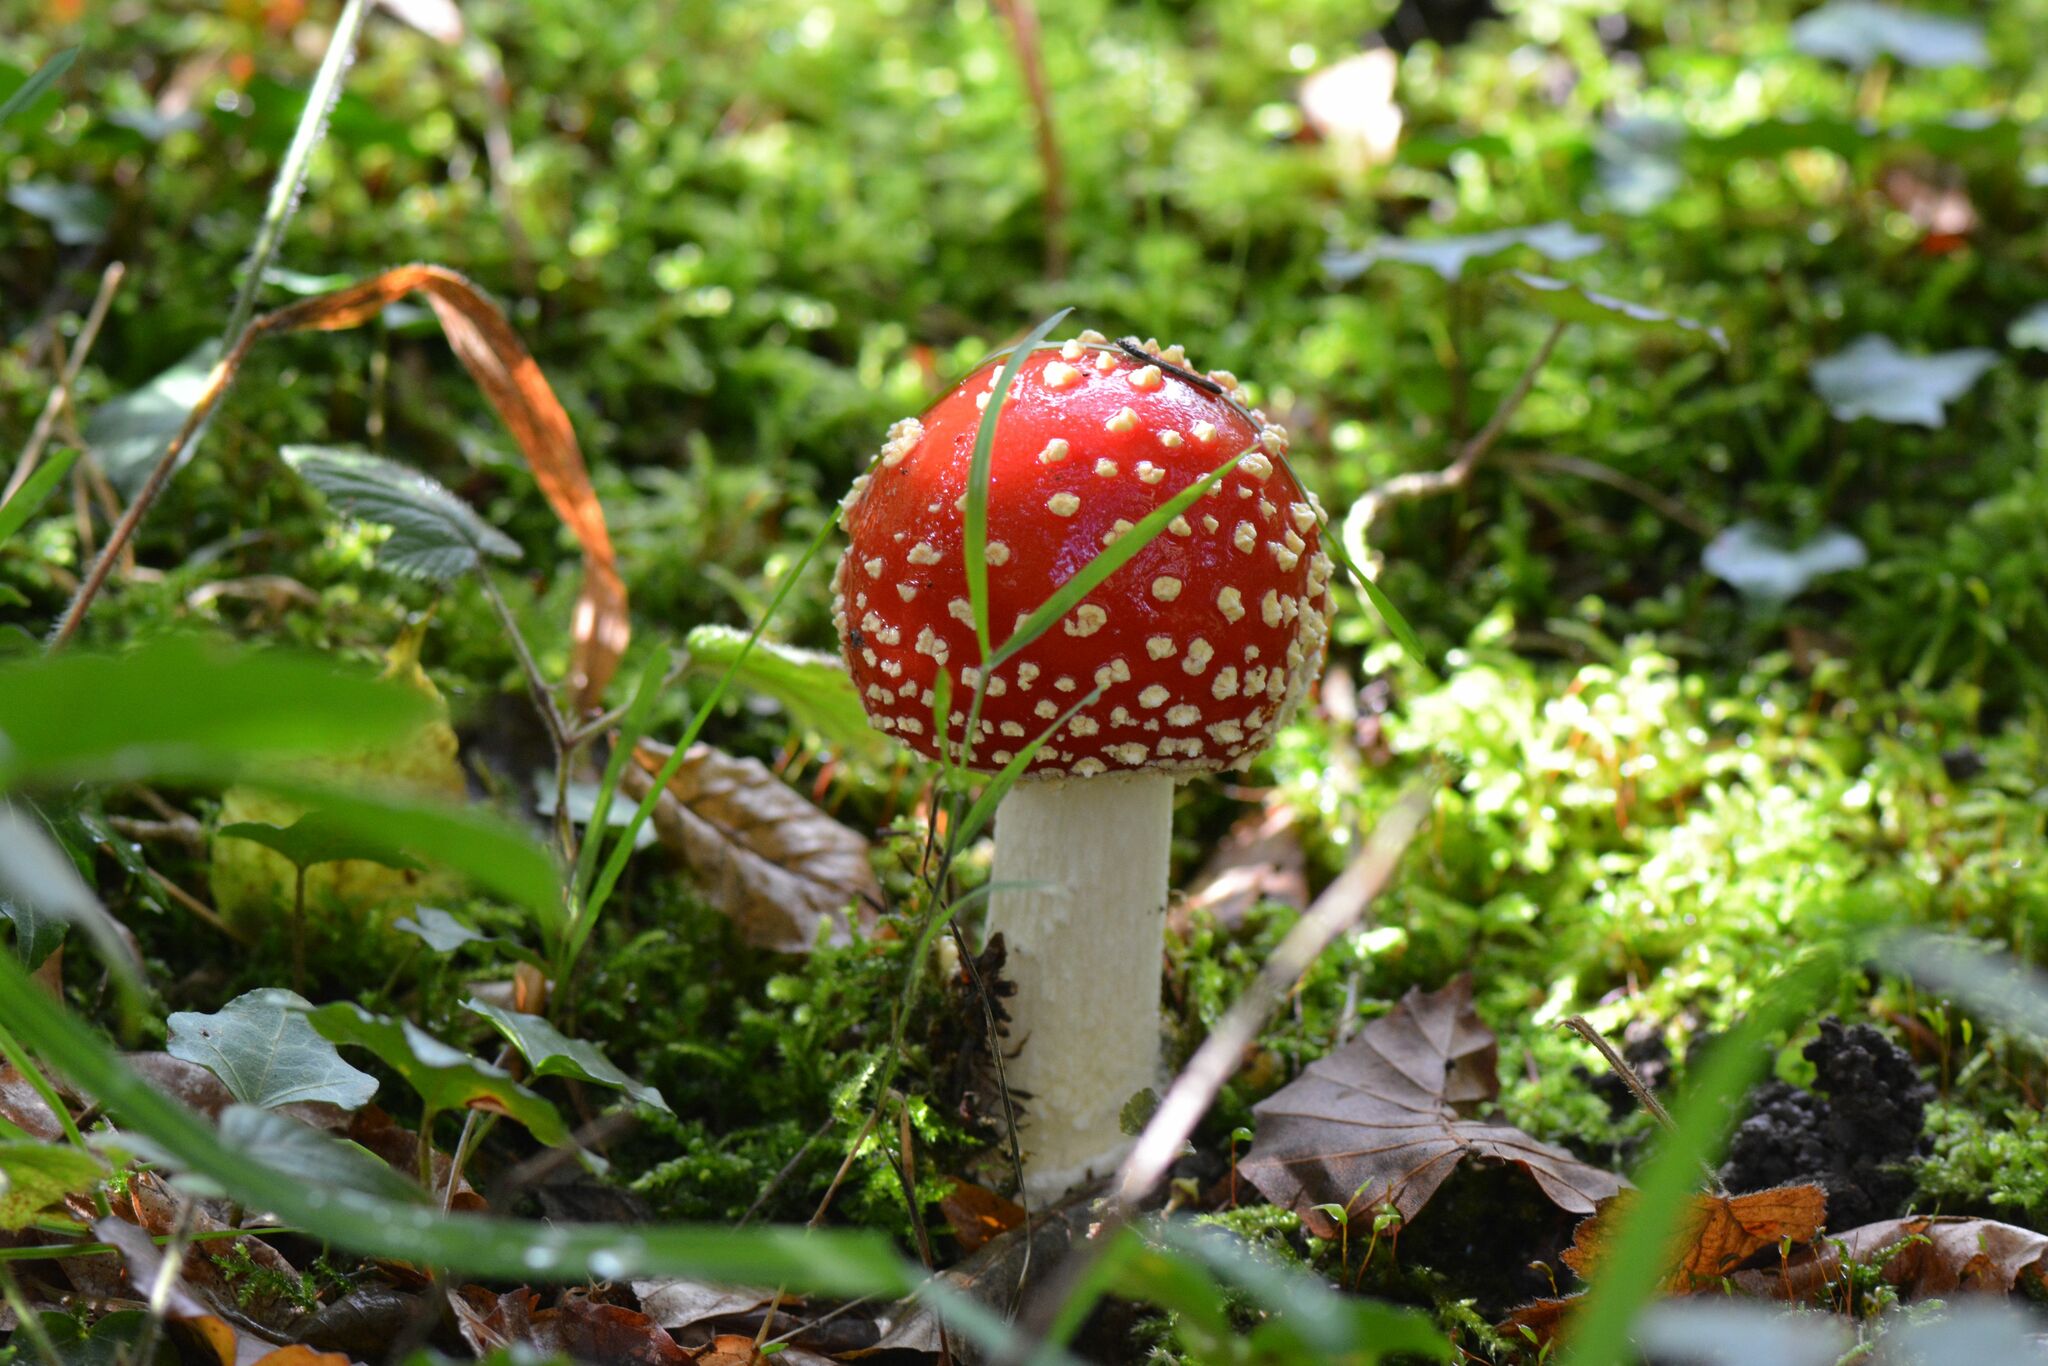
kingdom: Fungi
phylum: Basidiomycota
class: Agaricomycetes
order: Agaricales
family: Amanitaceae
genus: Amanita
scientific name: Amanita muscaria
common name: Fly agaric
